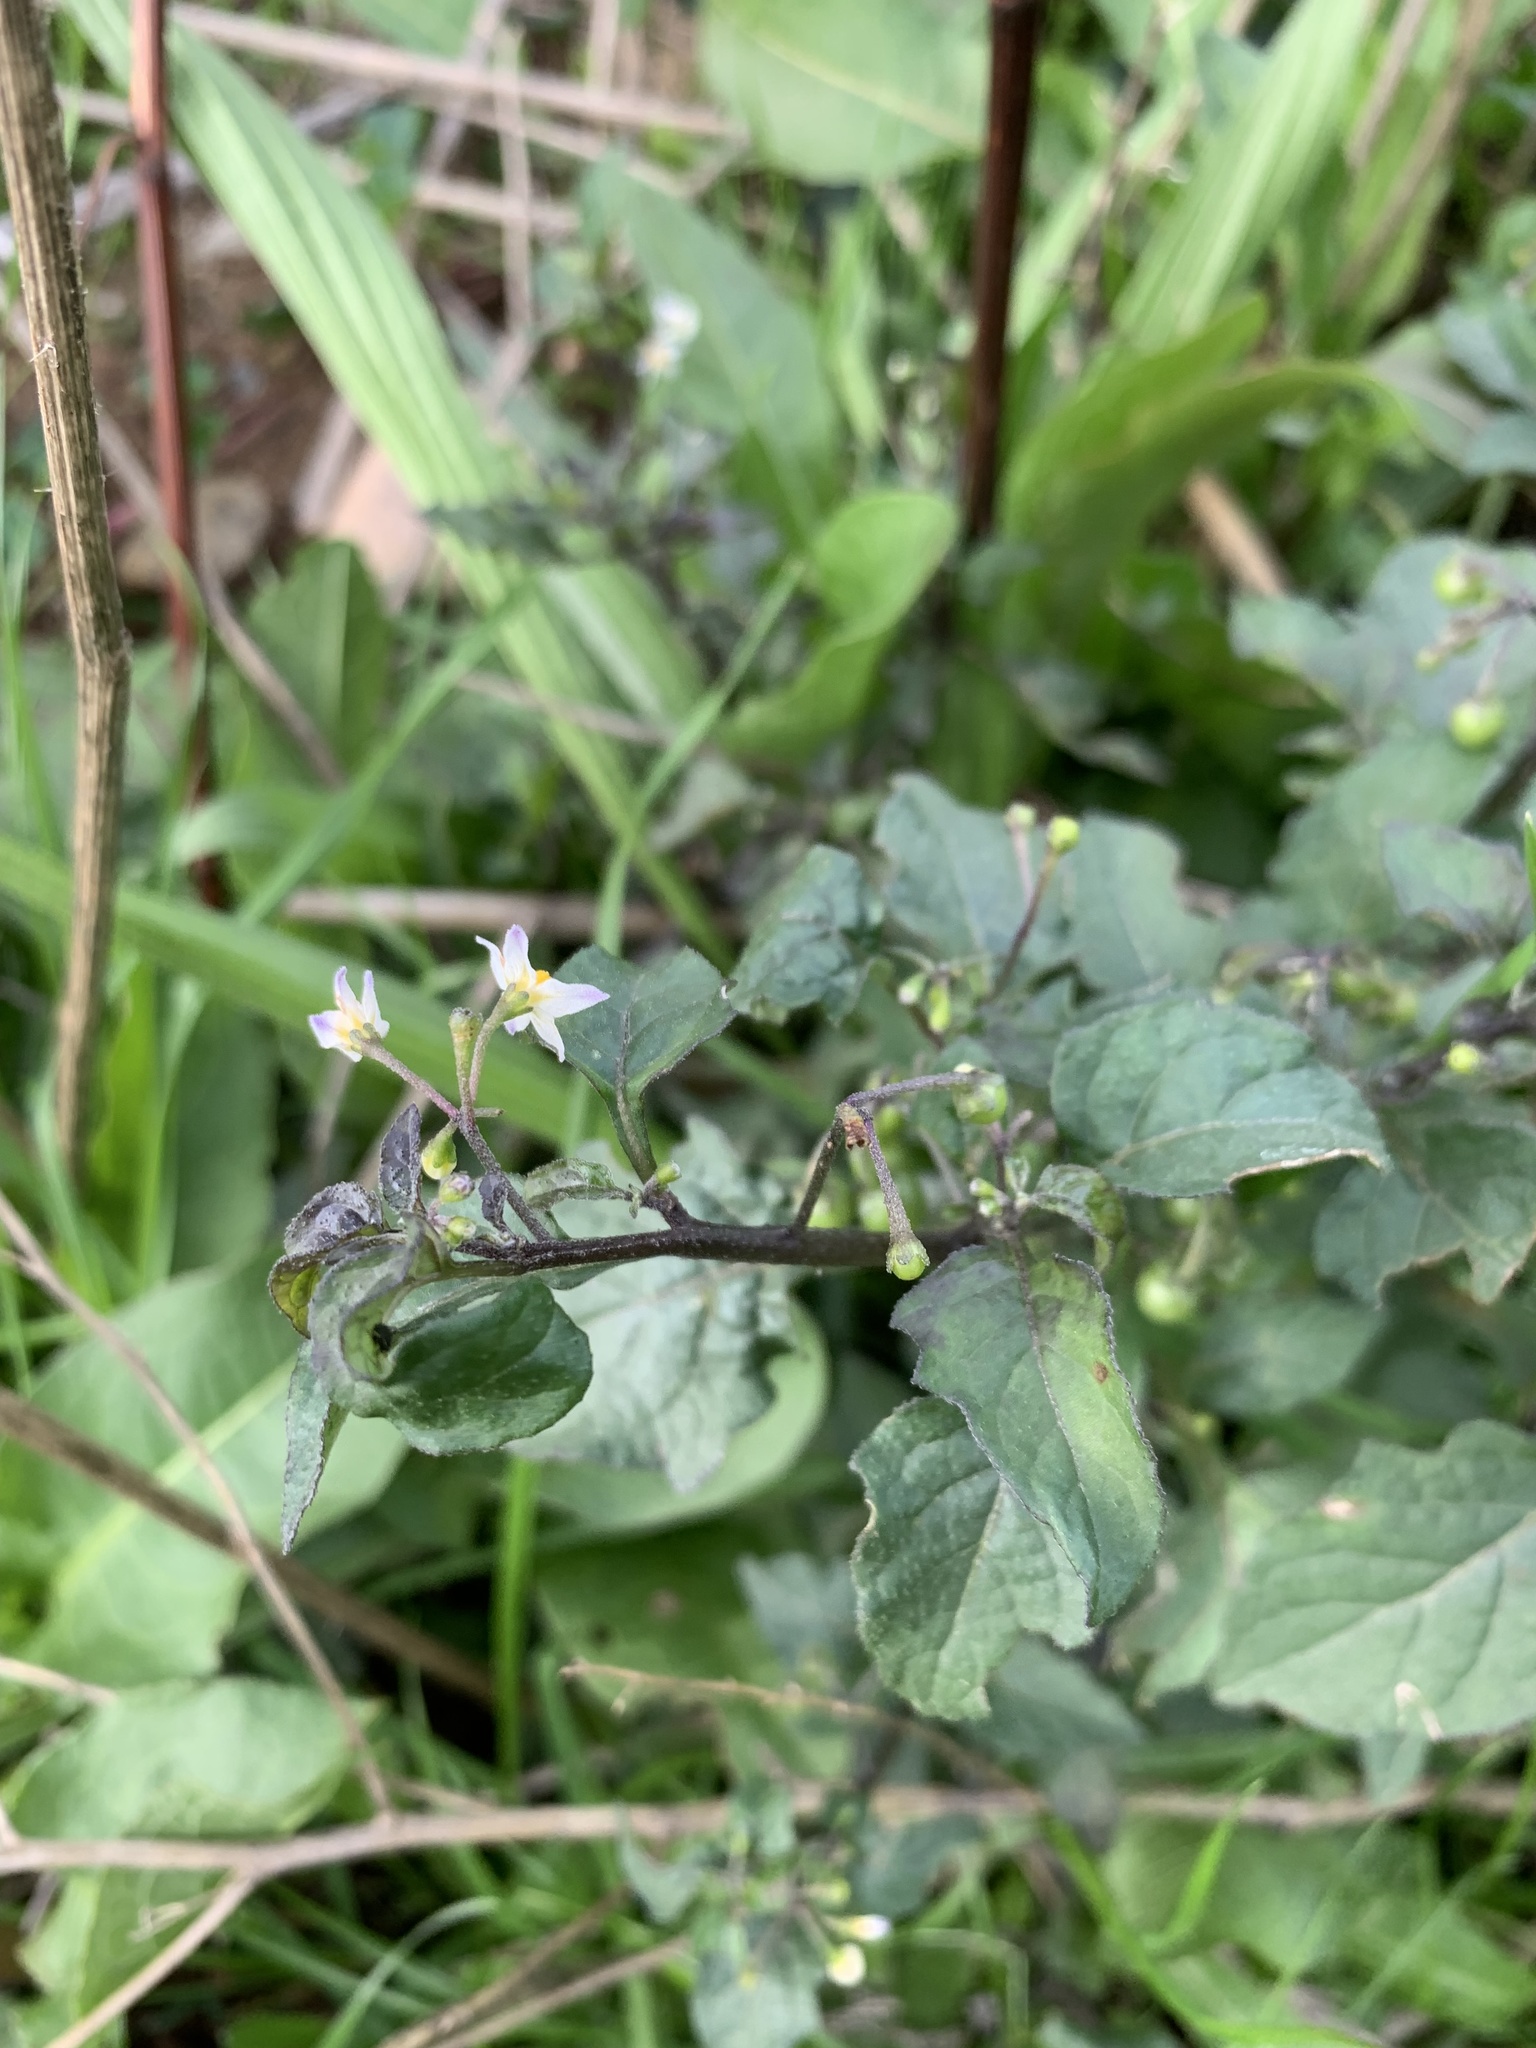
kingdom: Plantae
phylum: Tracheophyta
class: Magnoliopsida
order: Solanales
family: Solanaceae
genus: Solanum
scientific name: Solanum nigrum
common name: Black nightshade
